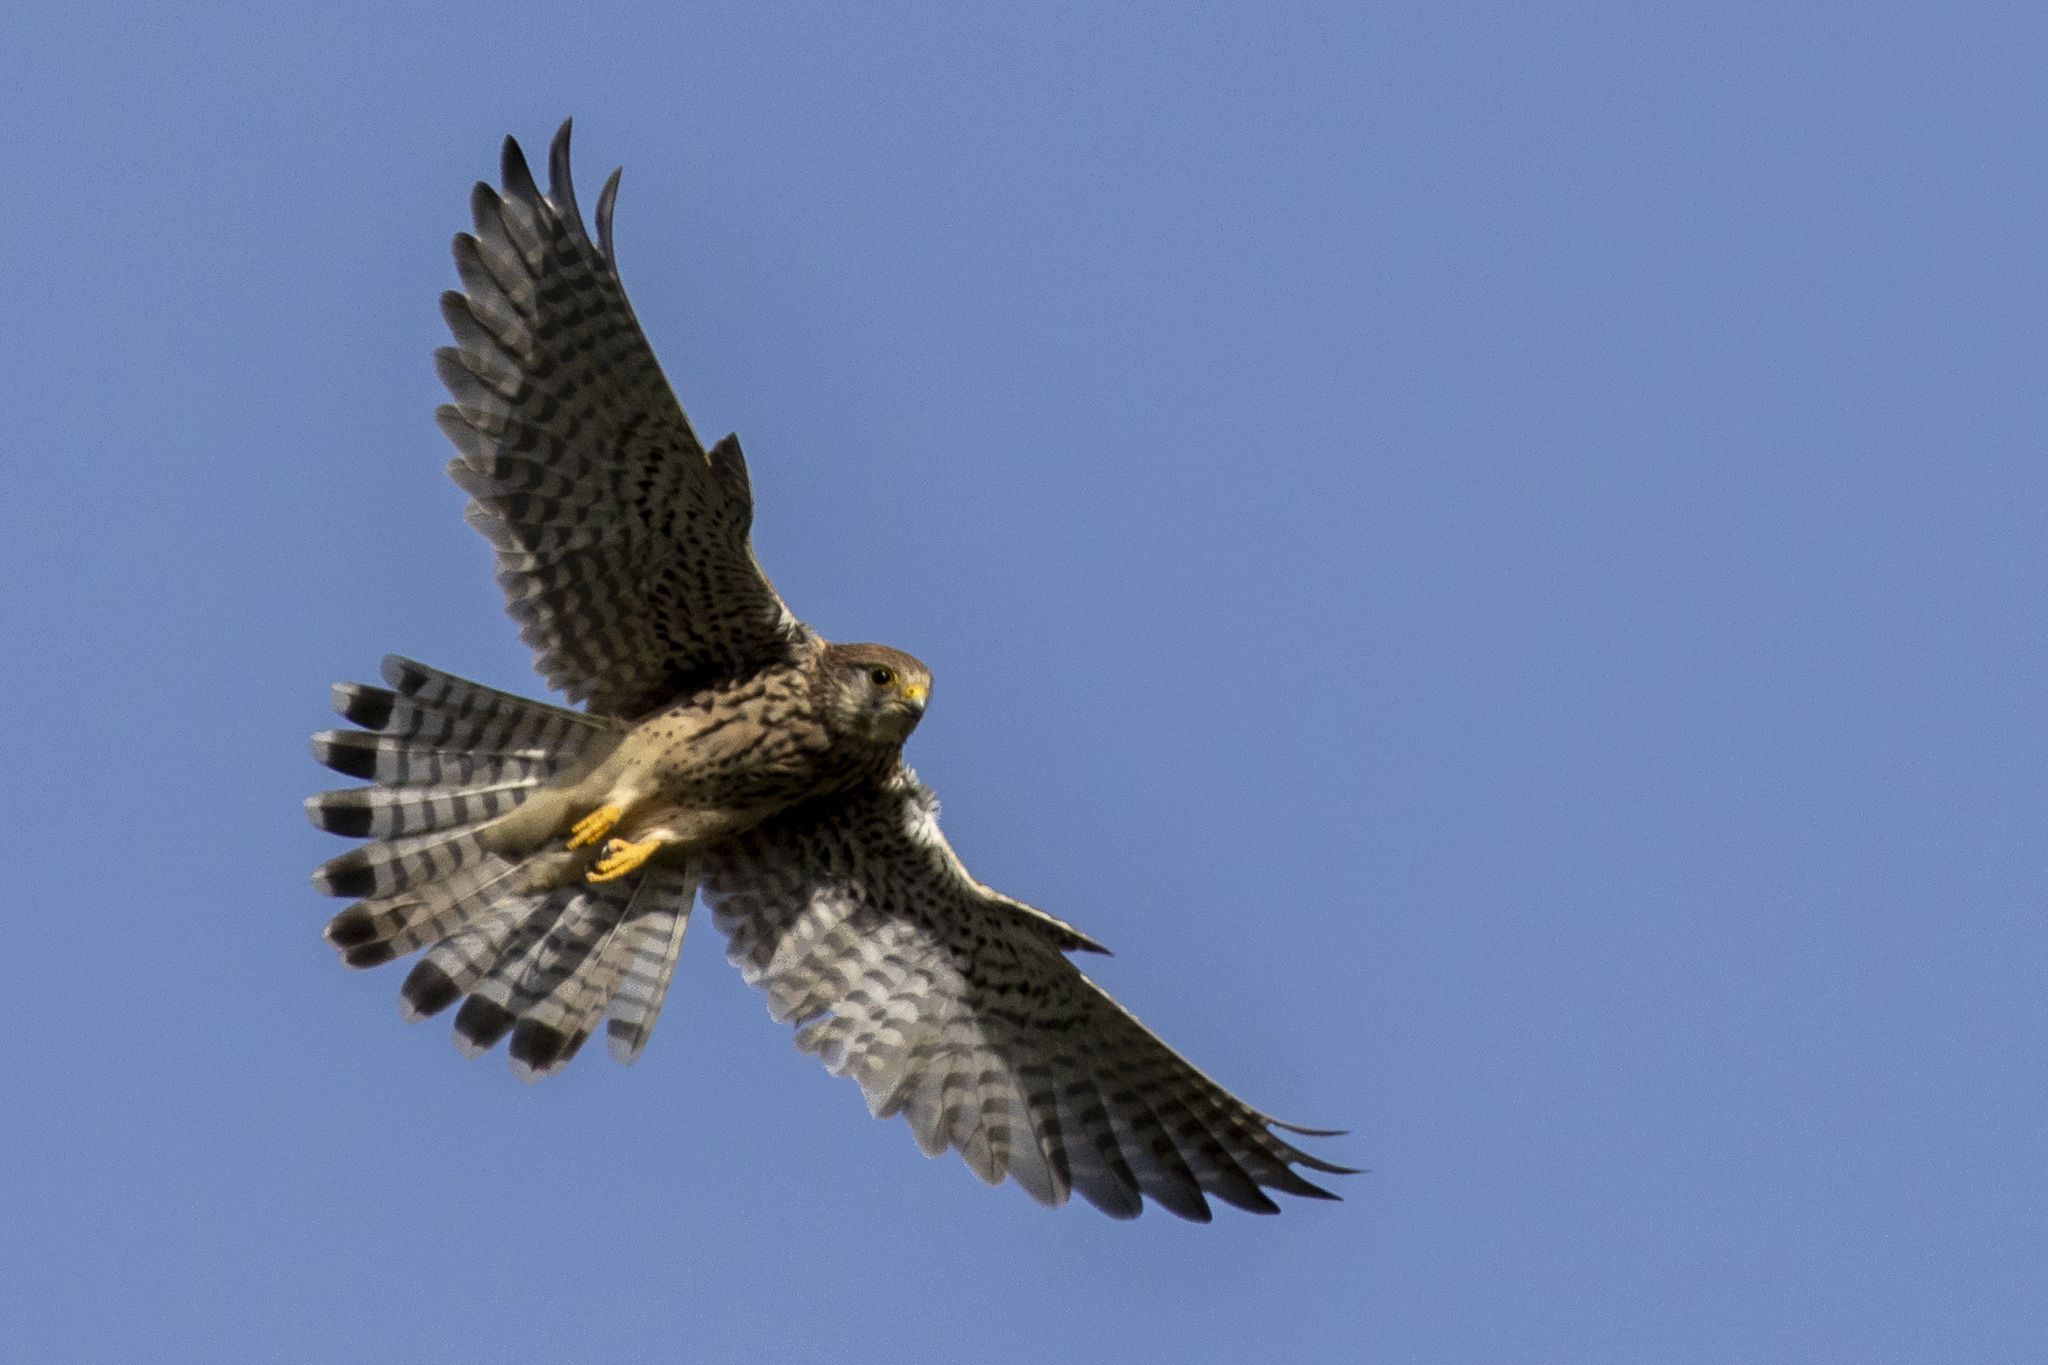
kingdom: Animalia
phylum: Chordata
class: Aves
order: Falconiformes
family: Falconidae
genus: Falco
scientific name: Falco tinnunculus
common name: Common kestrel
